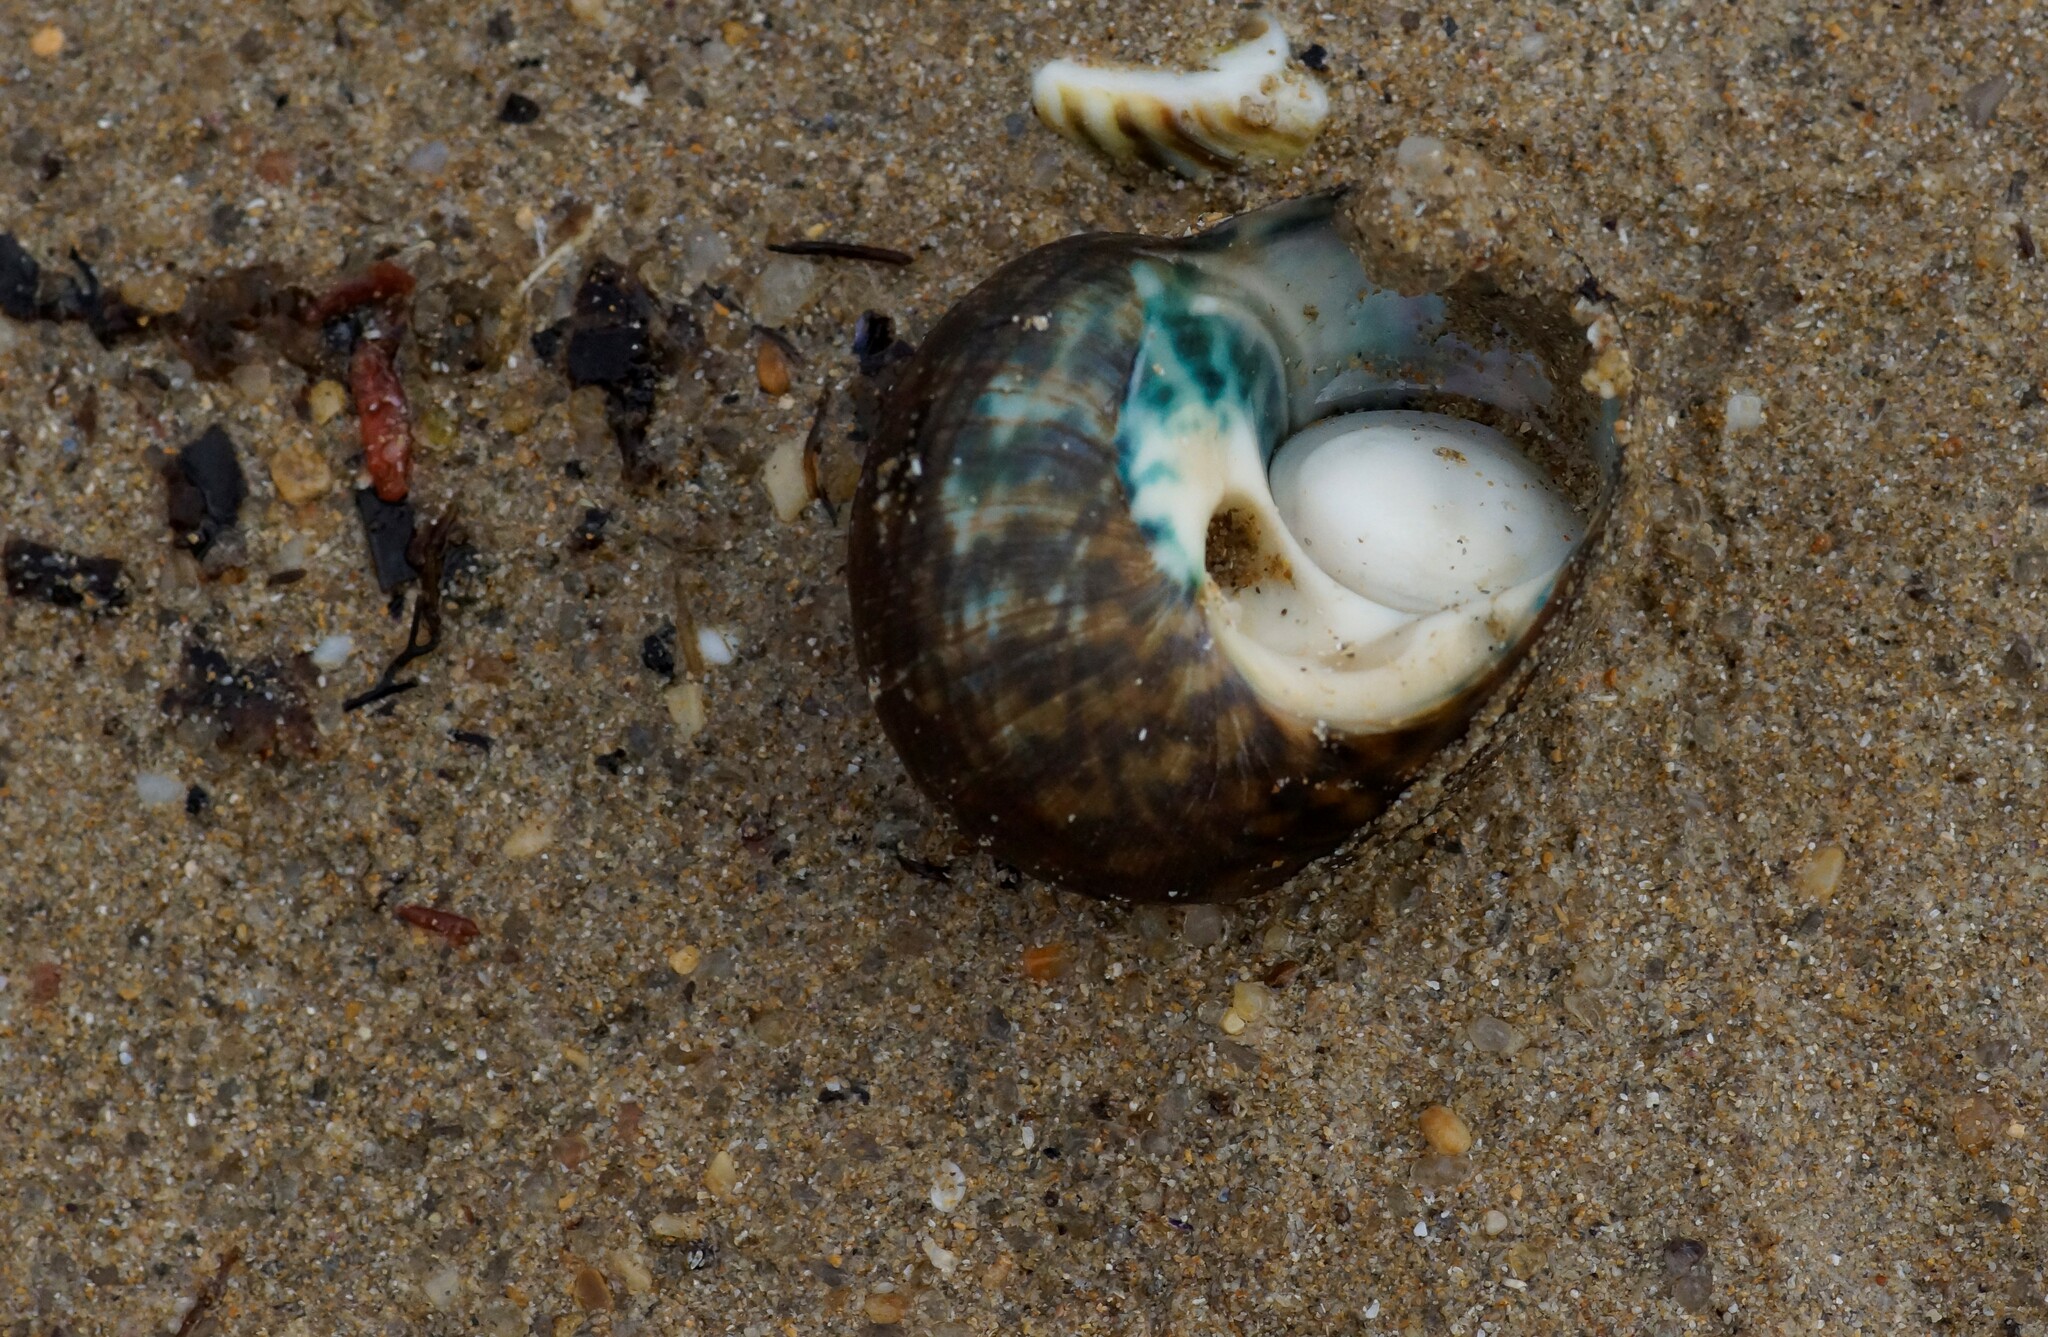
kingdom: Animalia
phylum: Mollusca
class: Gastropoda
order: Trochida
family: Turbinidae
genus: Lunella
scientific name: Lunella undulata
